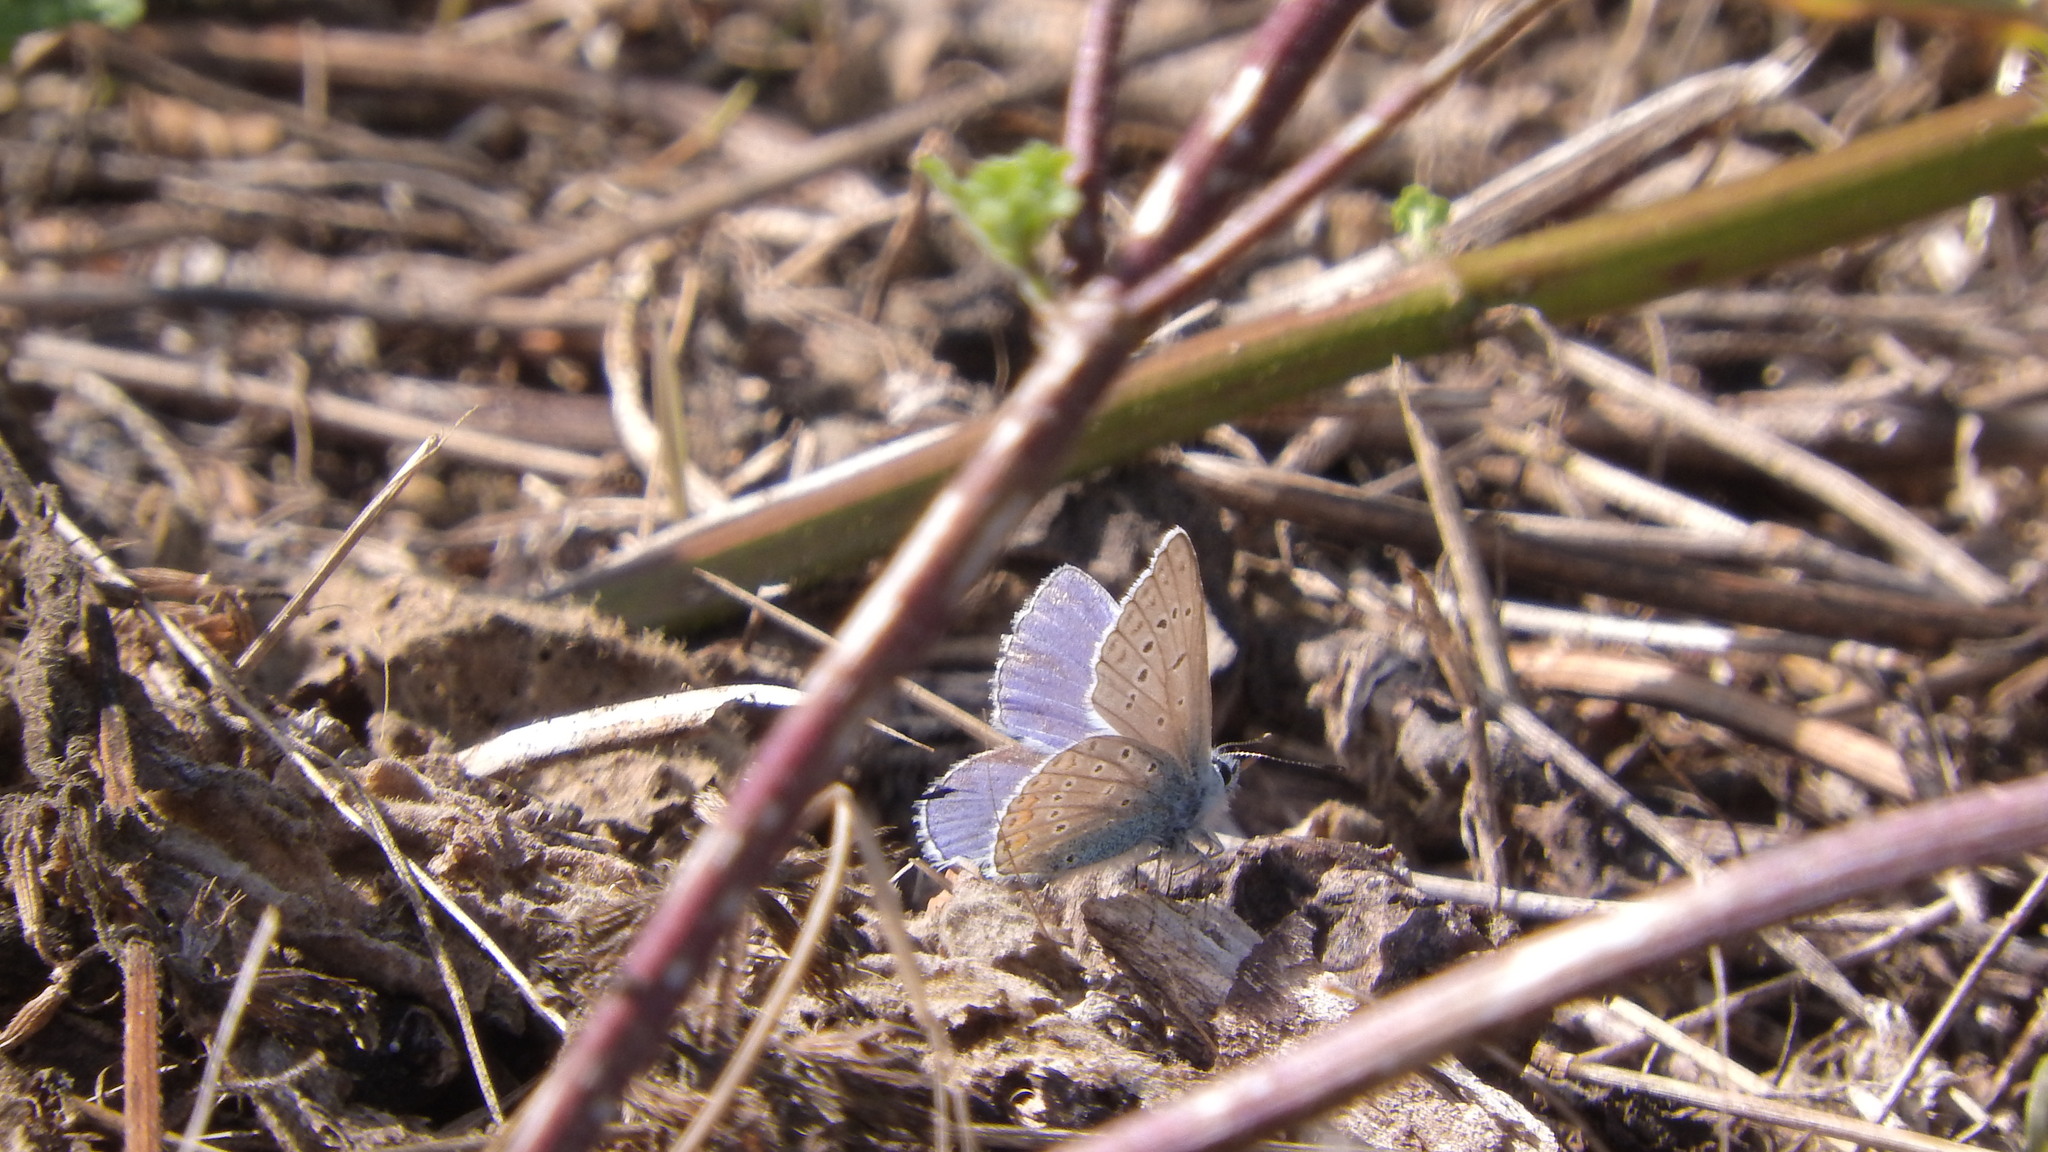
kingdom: Animalia
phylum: Arthropoda
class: Insecta
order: Lepidoptera
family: Lycaenidae
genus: Polyommatus
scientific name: Polyommatus icarus
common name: Common blue
